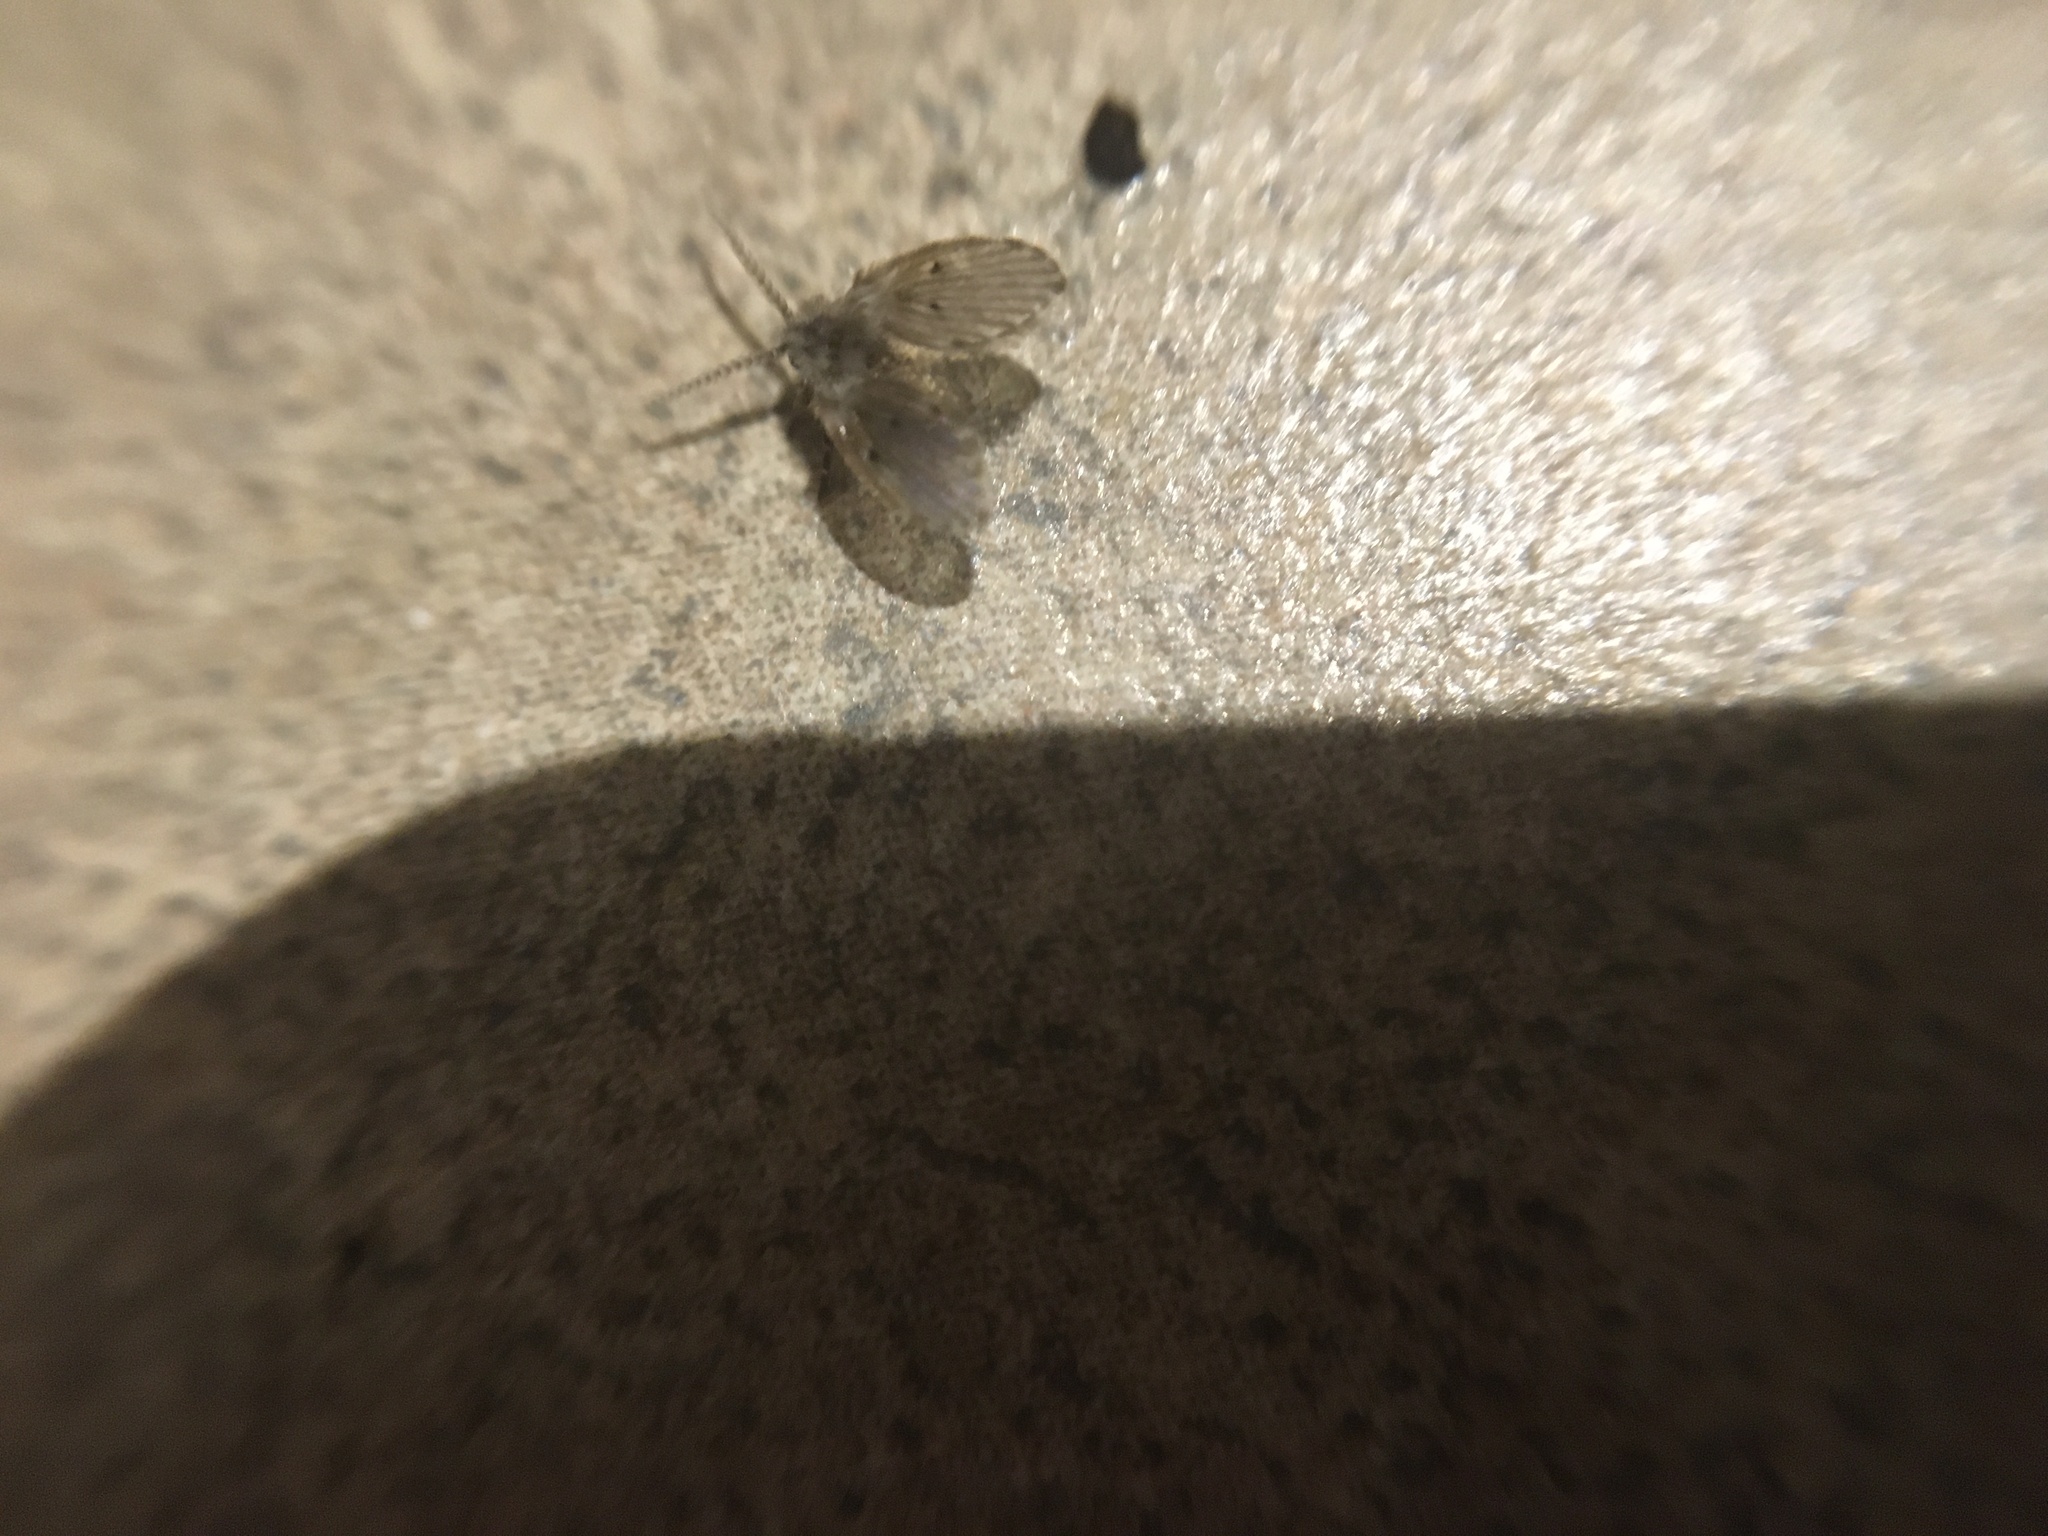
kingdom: Animalia
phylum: Arthropoda
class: Insecta
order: Diptera
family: Psychodidae
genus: Clogmia
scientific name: Clogmia albipunctatus
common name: White-spotted moth fly
